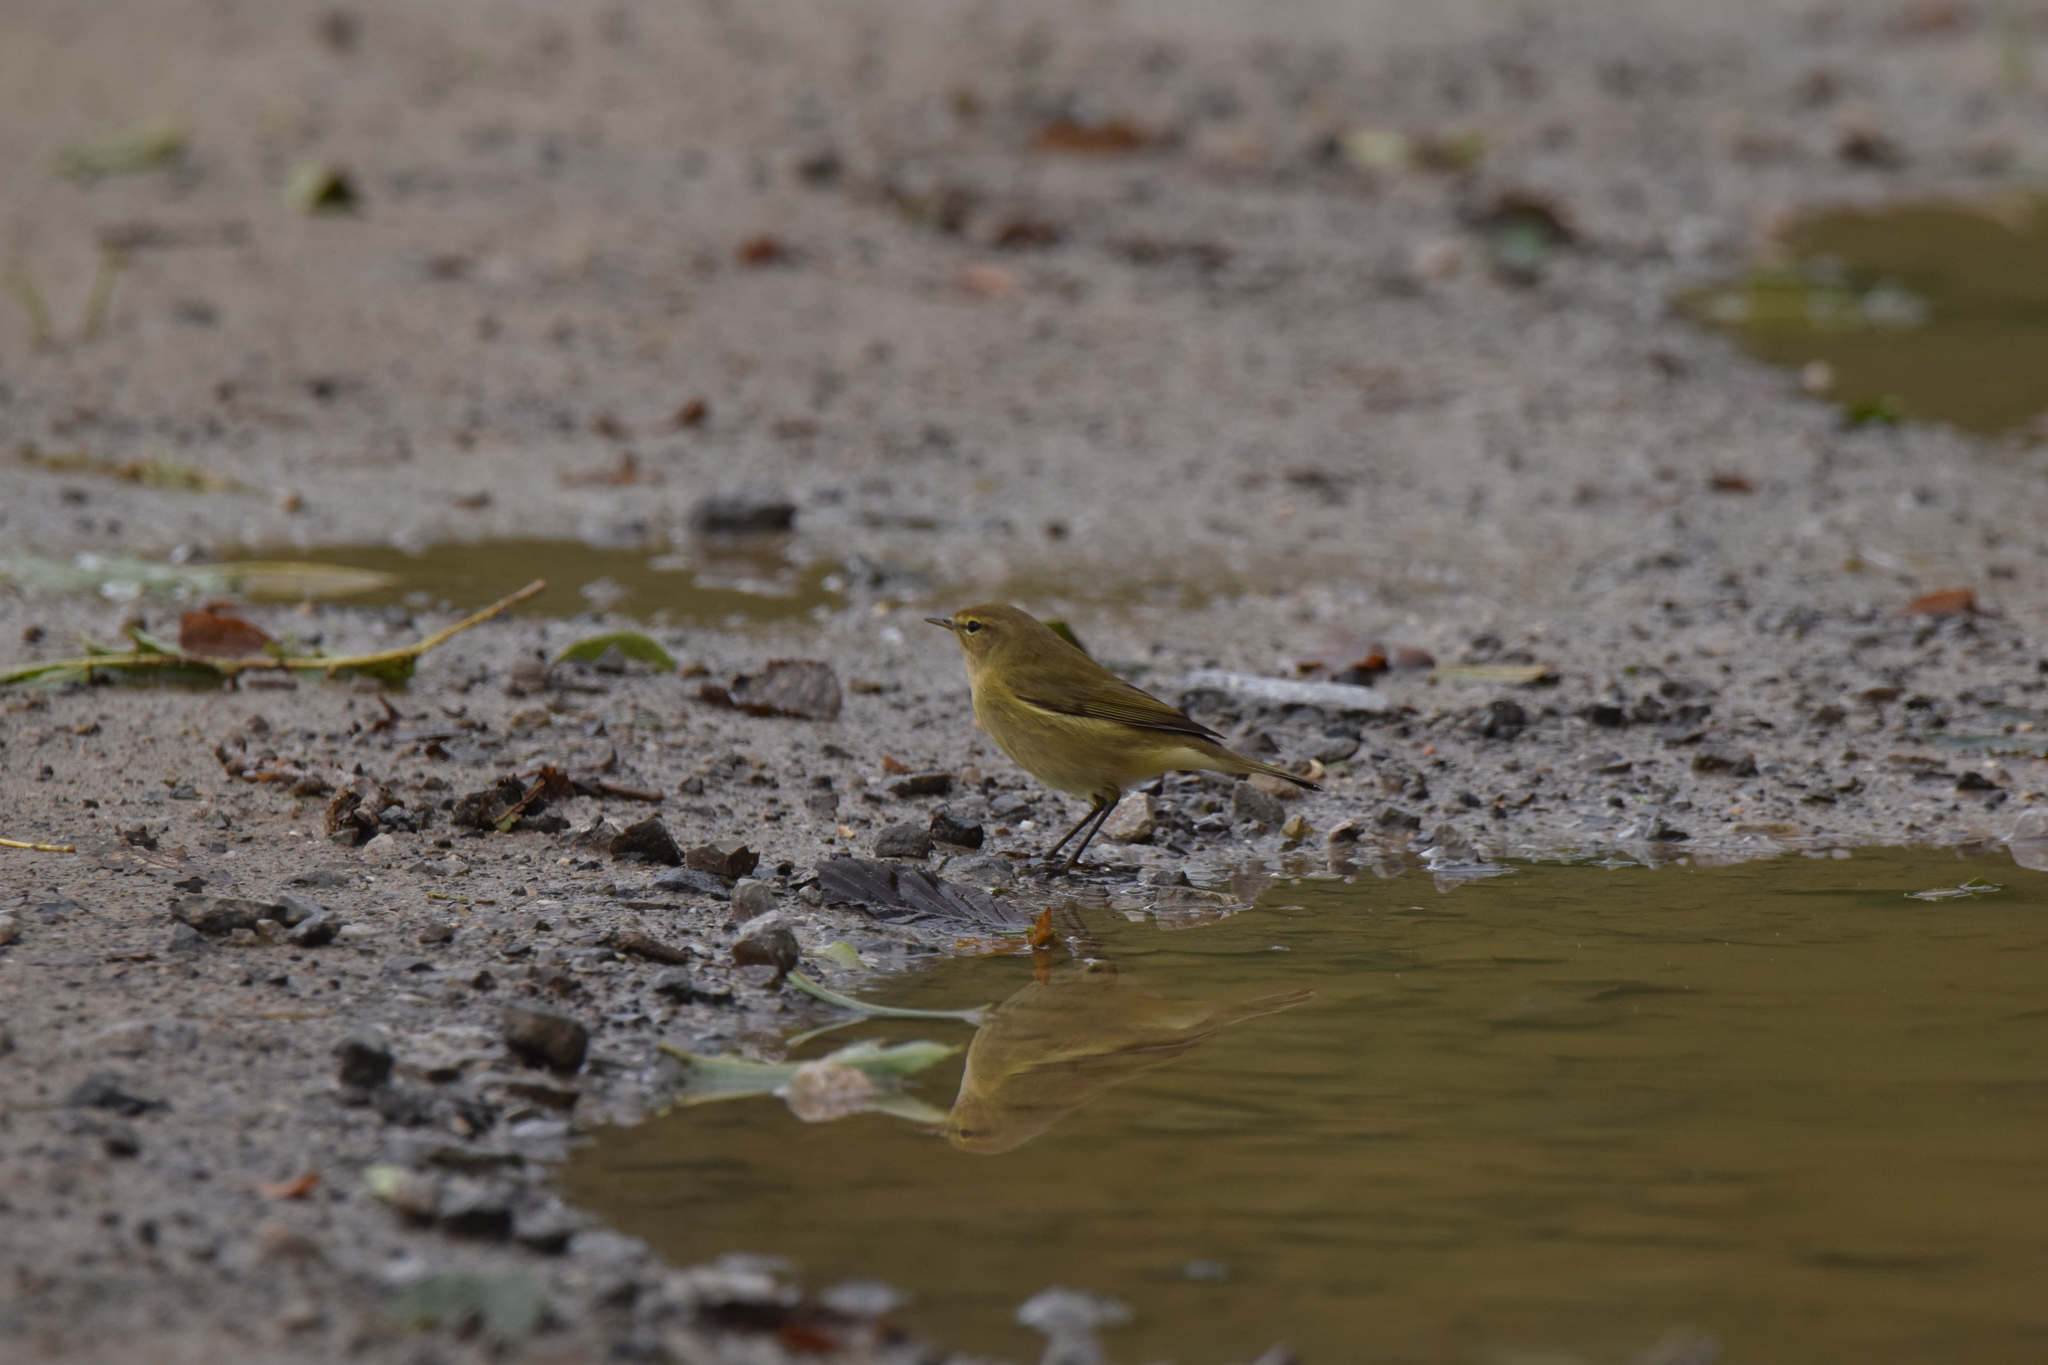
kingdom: Animalia
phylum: Chordata
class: Aves
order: Passeriformes
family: Phylloscopidae
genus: Phylloscopus
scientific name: Phylloscopus collybita
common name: Common chiffchaff
